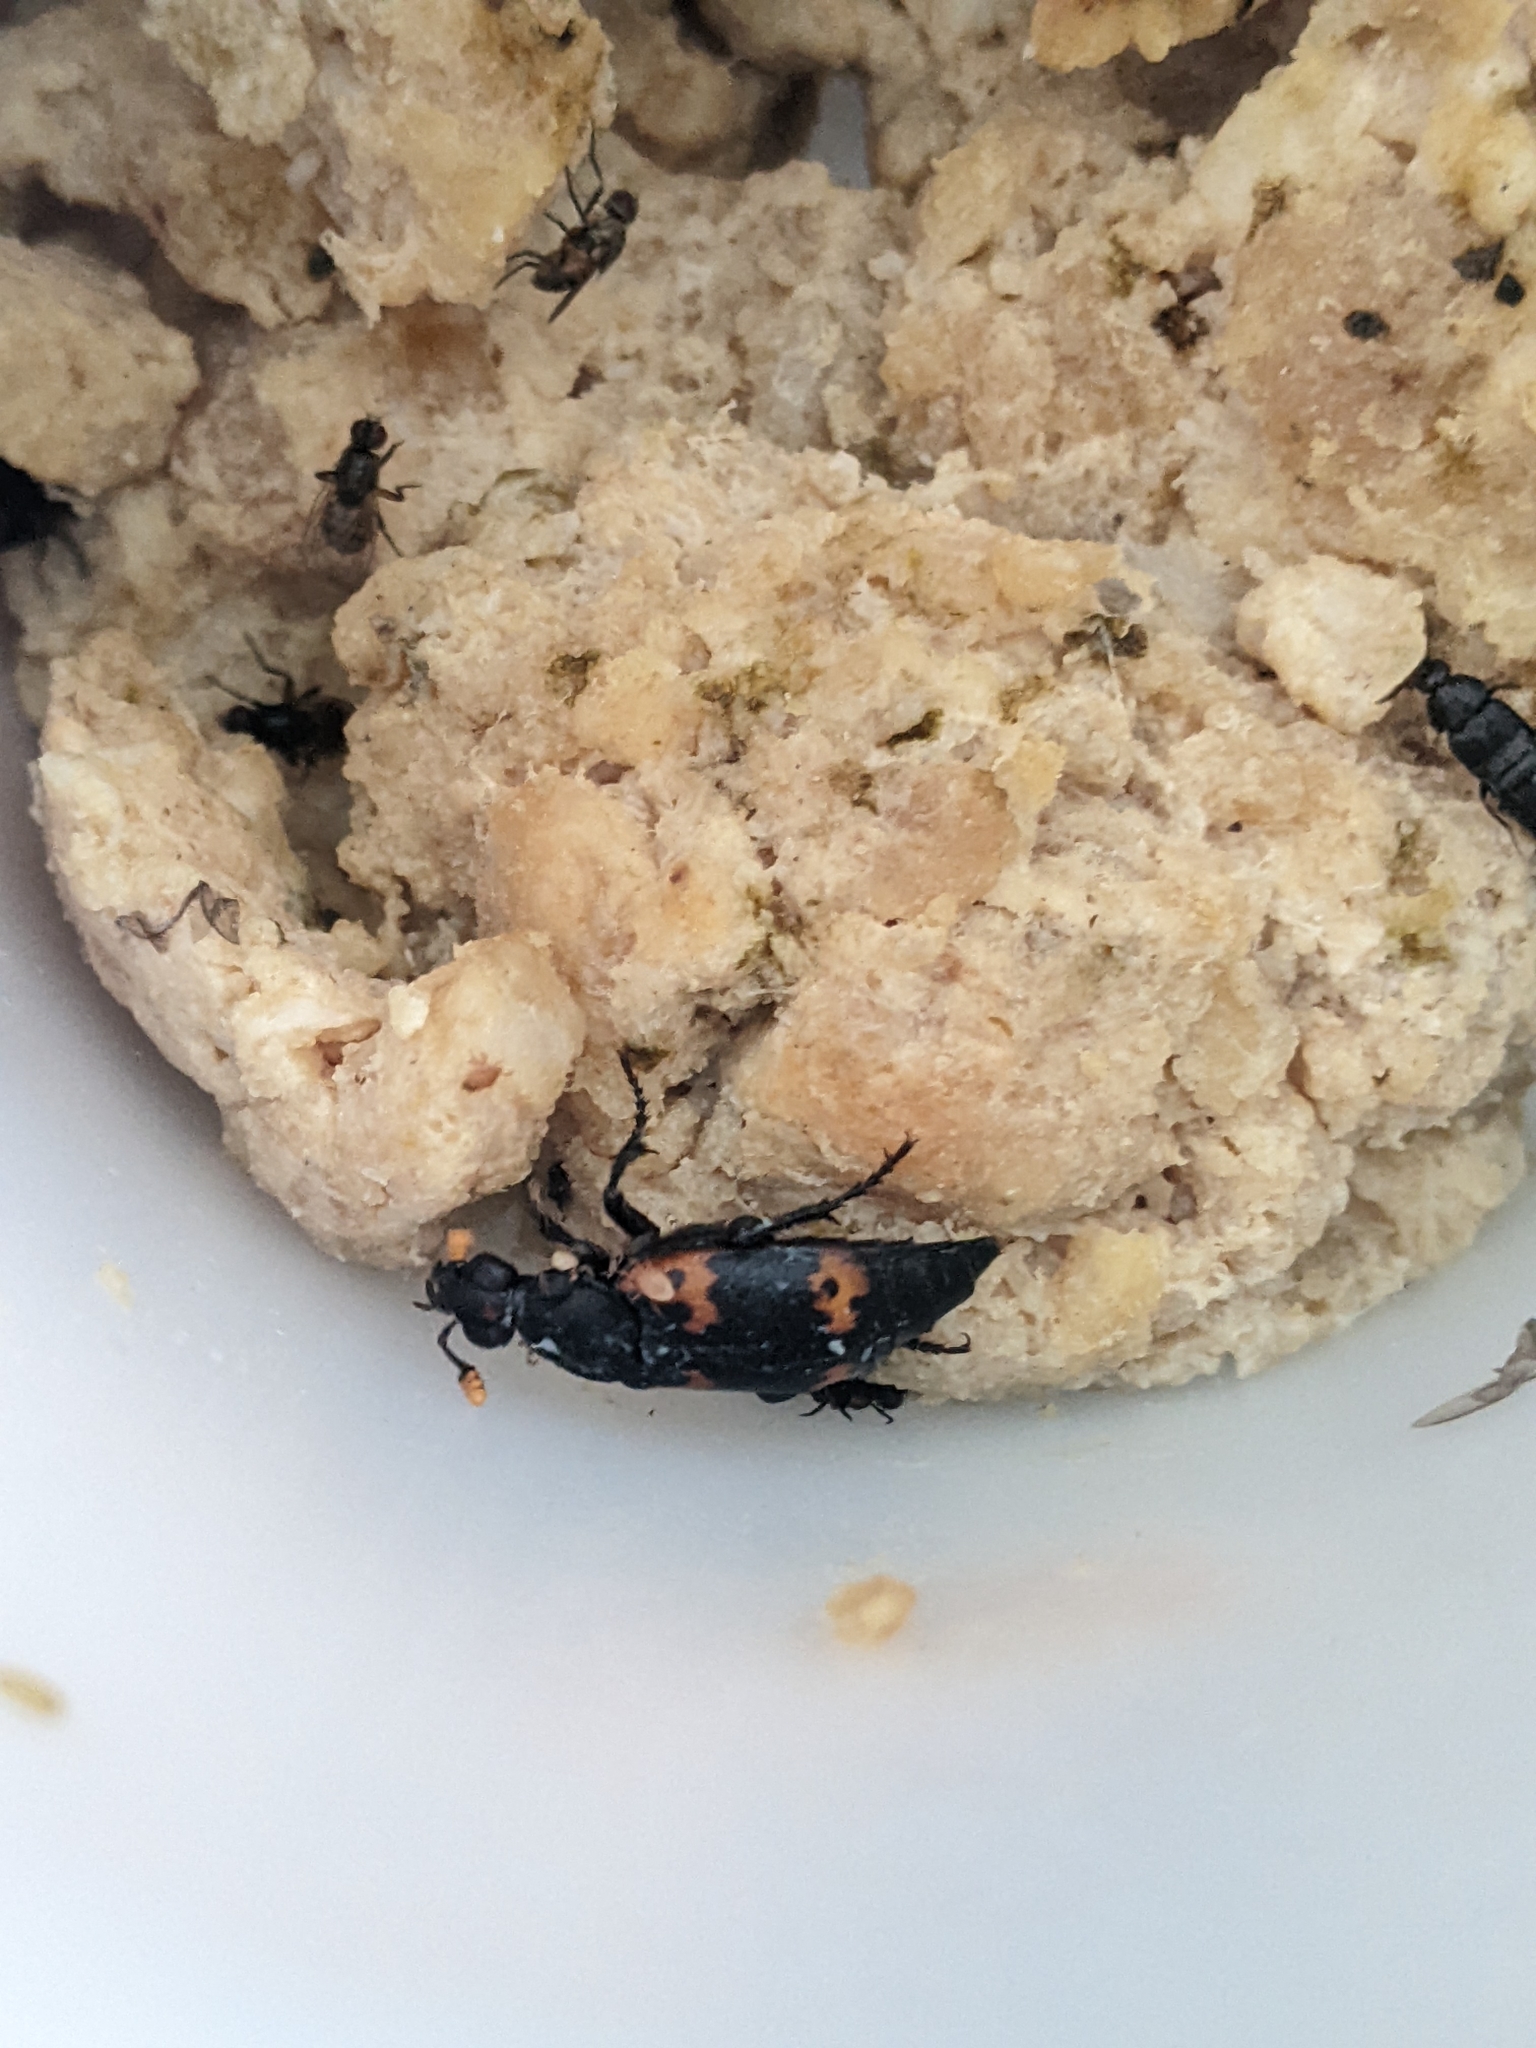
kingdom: Animalia
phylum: Arthropoda
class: Insecta
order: Coleoptera
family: Staphylinidae
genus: Nicrophorus
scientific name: Nicrophorus nepalensis
